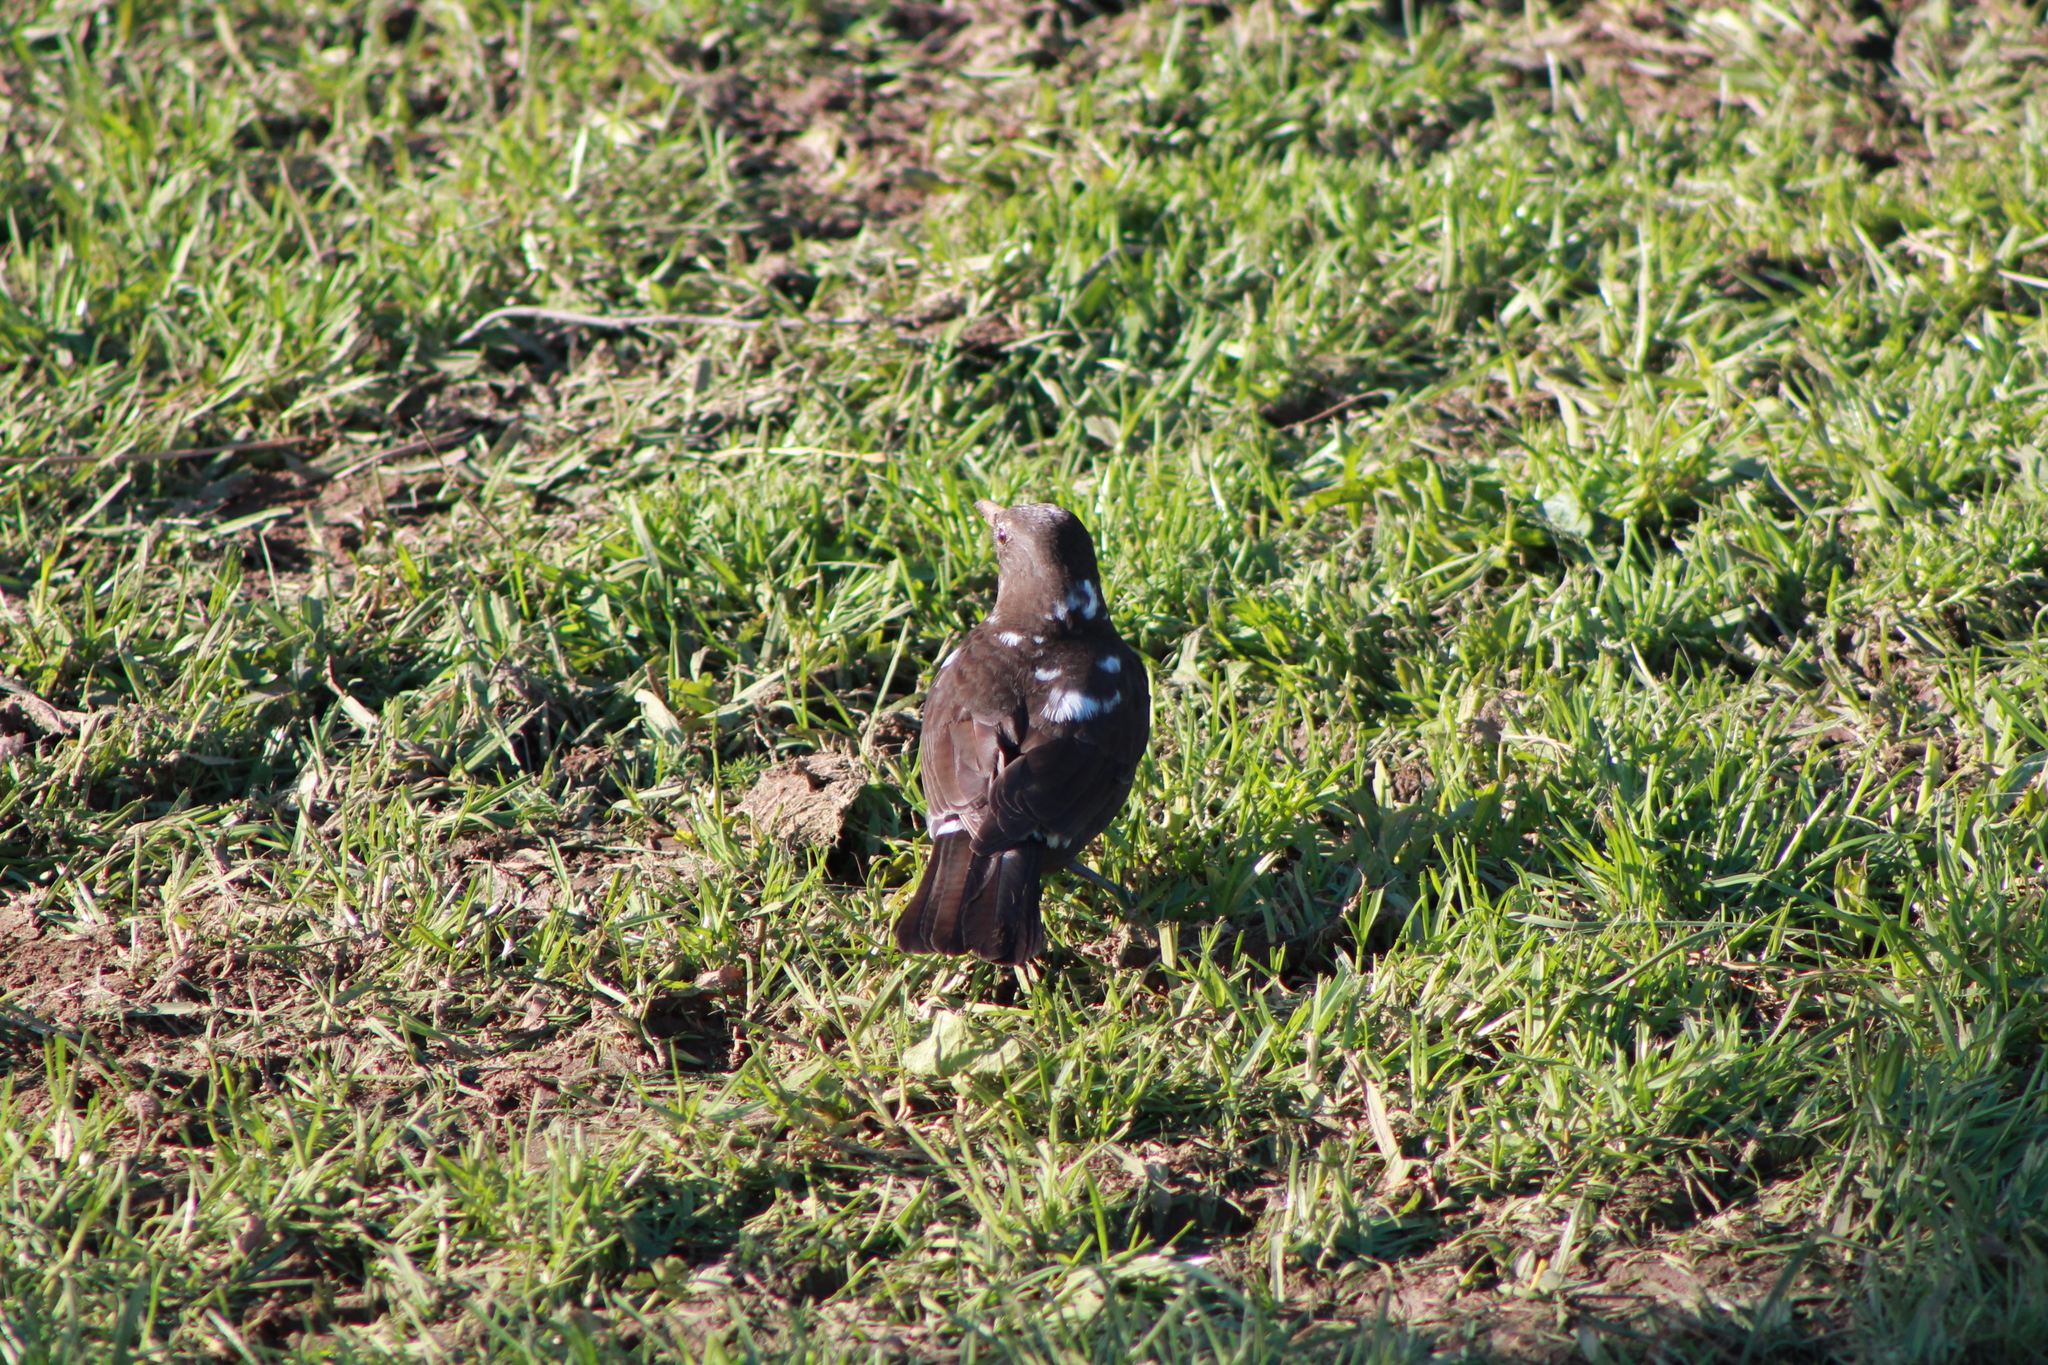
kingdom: Animalia
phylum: Chordata
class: Aves
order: Passeriformes
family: Turdidae
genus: Turdus
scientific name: Turdus merula
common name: Common blackbird
